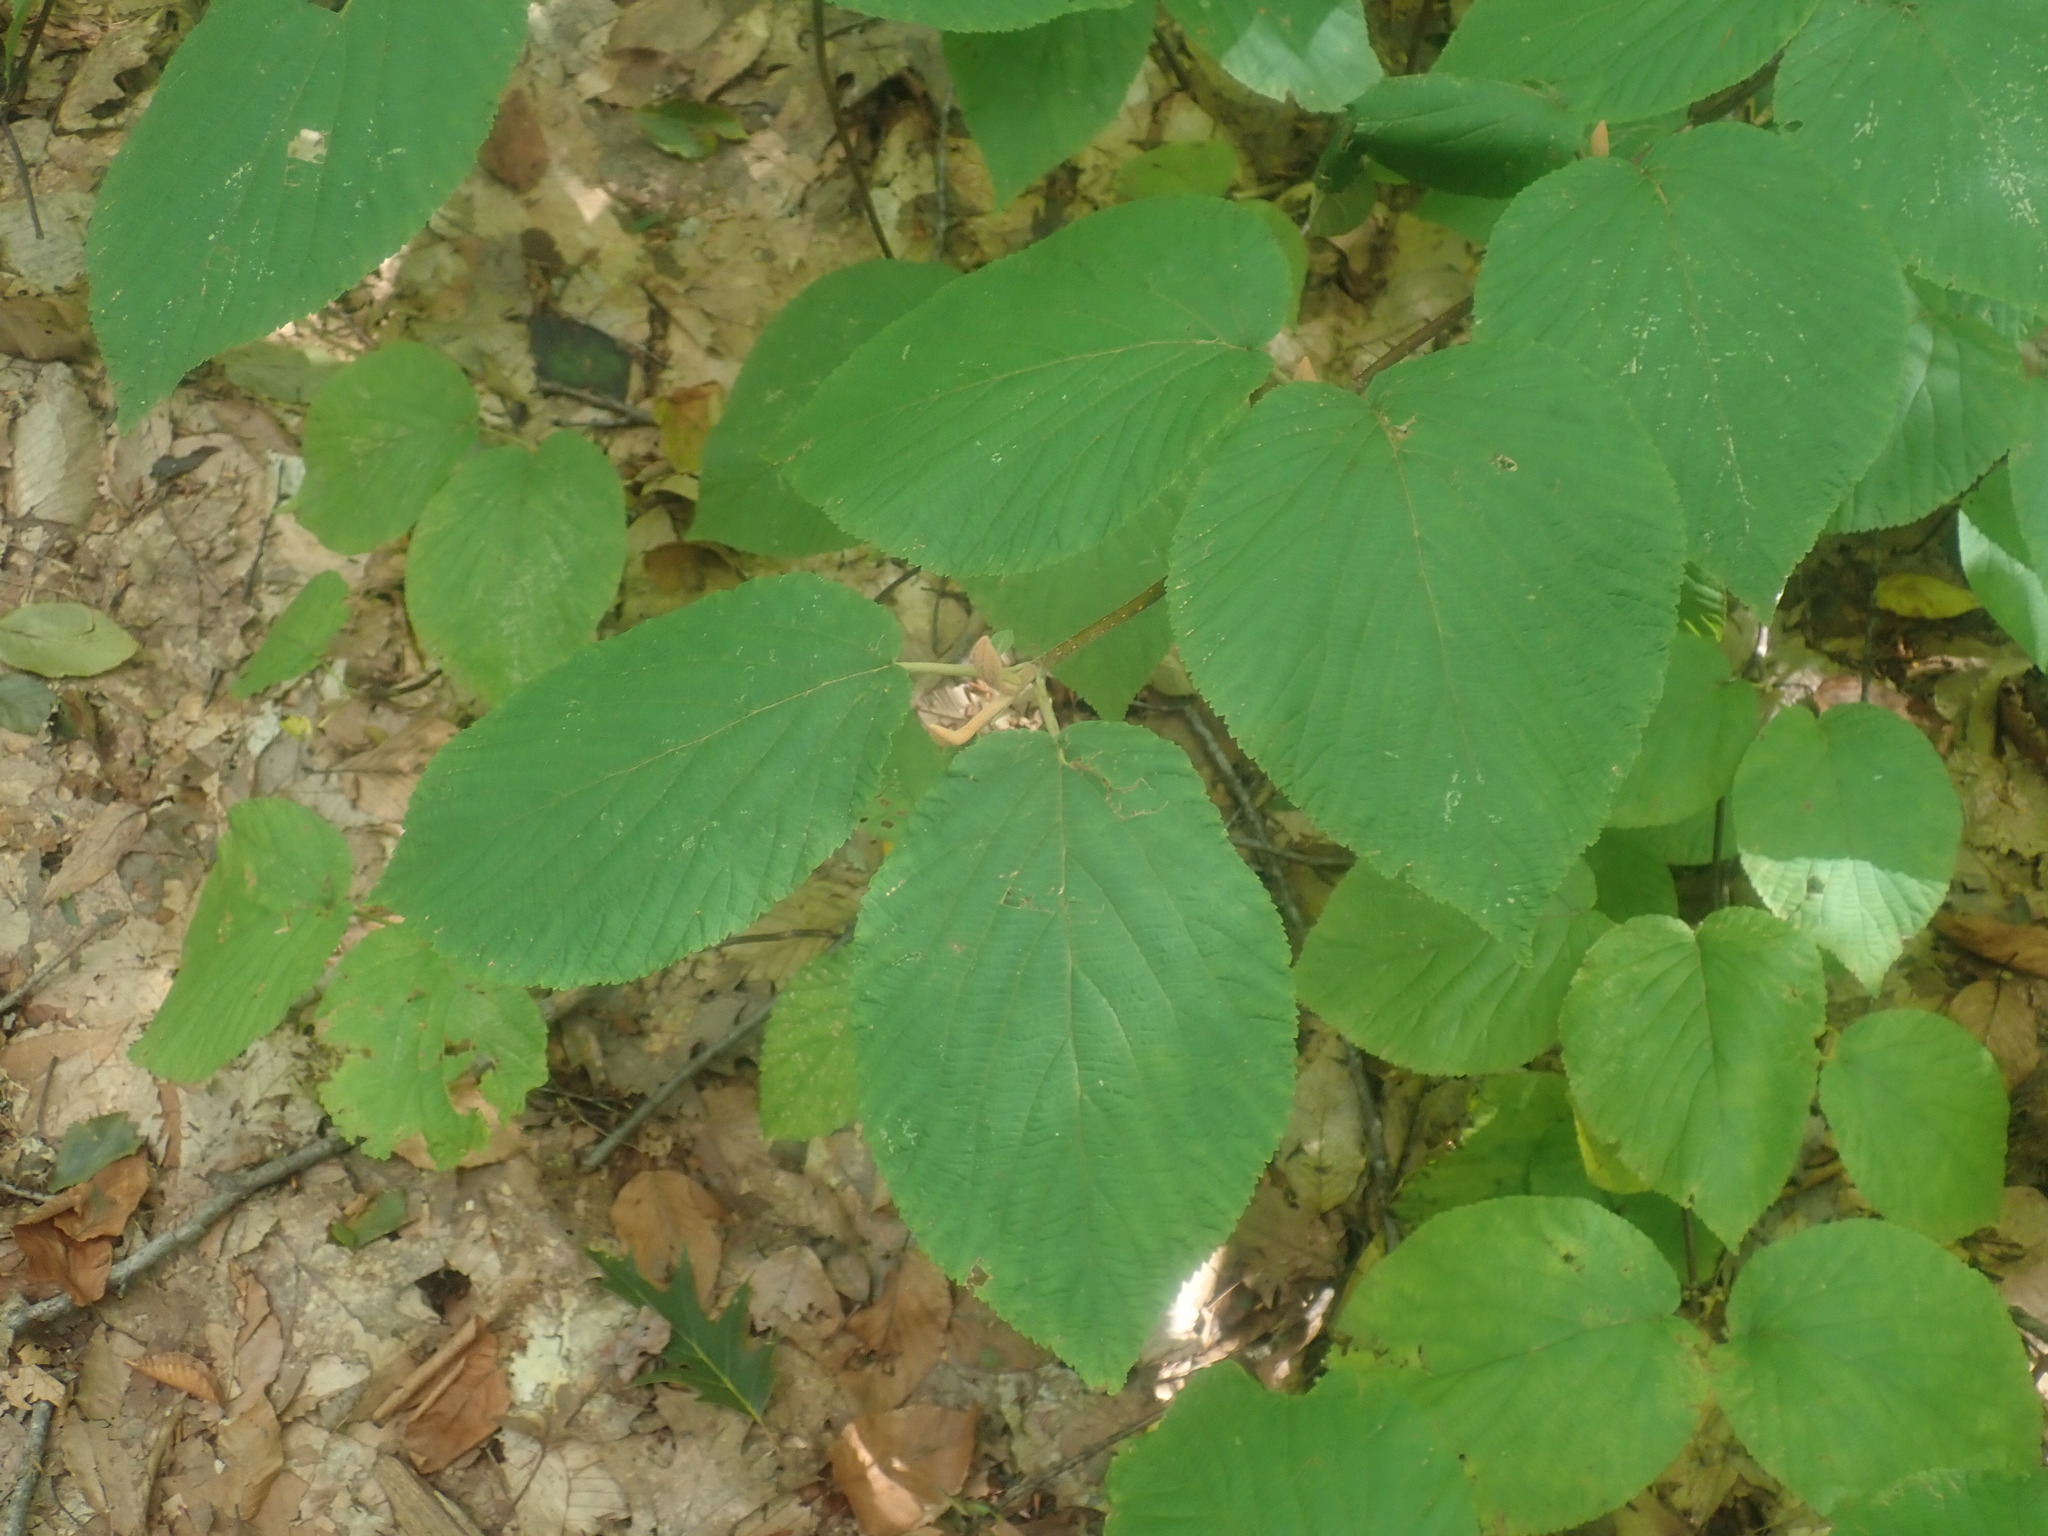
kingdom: Plantae
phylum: Tracheophyta
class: Magnoliopsida
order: Dipsacales
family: Viburnaceae
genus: Viburnum
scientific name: Viburnum lantanoides
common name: Hobblebush
